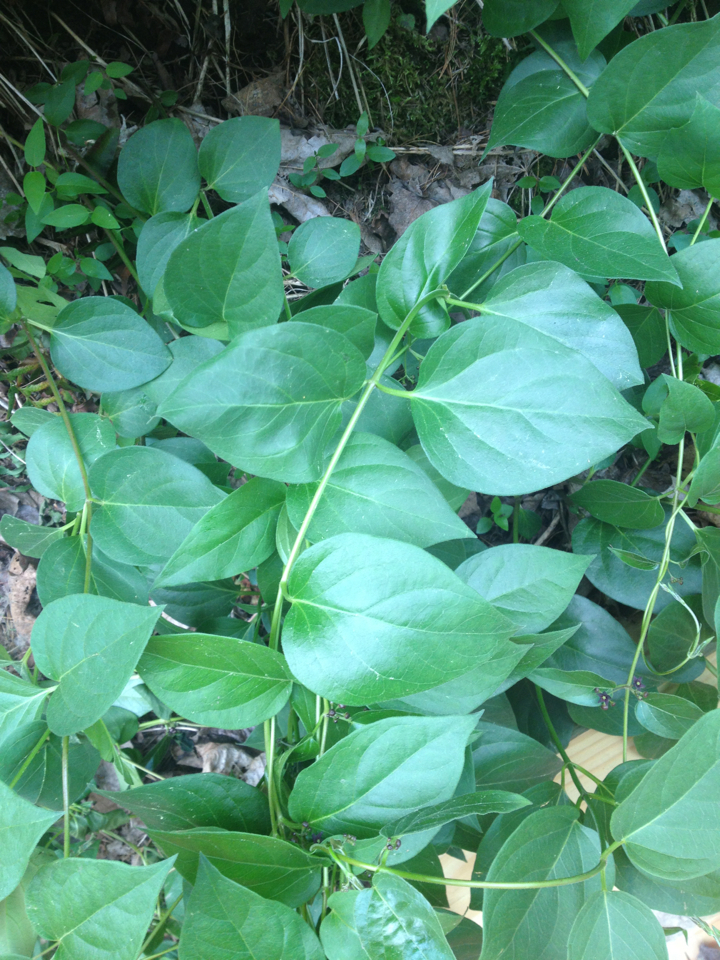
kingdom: Plantae
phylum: Tracheophyta
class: Magnoliopsida
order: Gentianales
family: Apocynaceae
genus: Vincetoxicum
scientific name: Vincetoxicum nigrum
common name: Black swallow-wort
